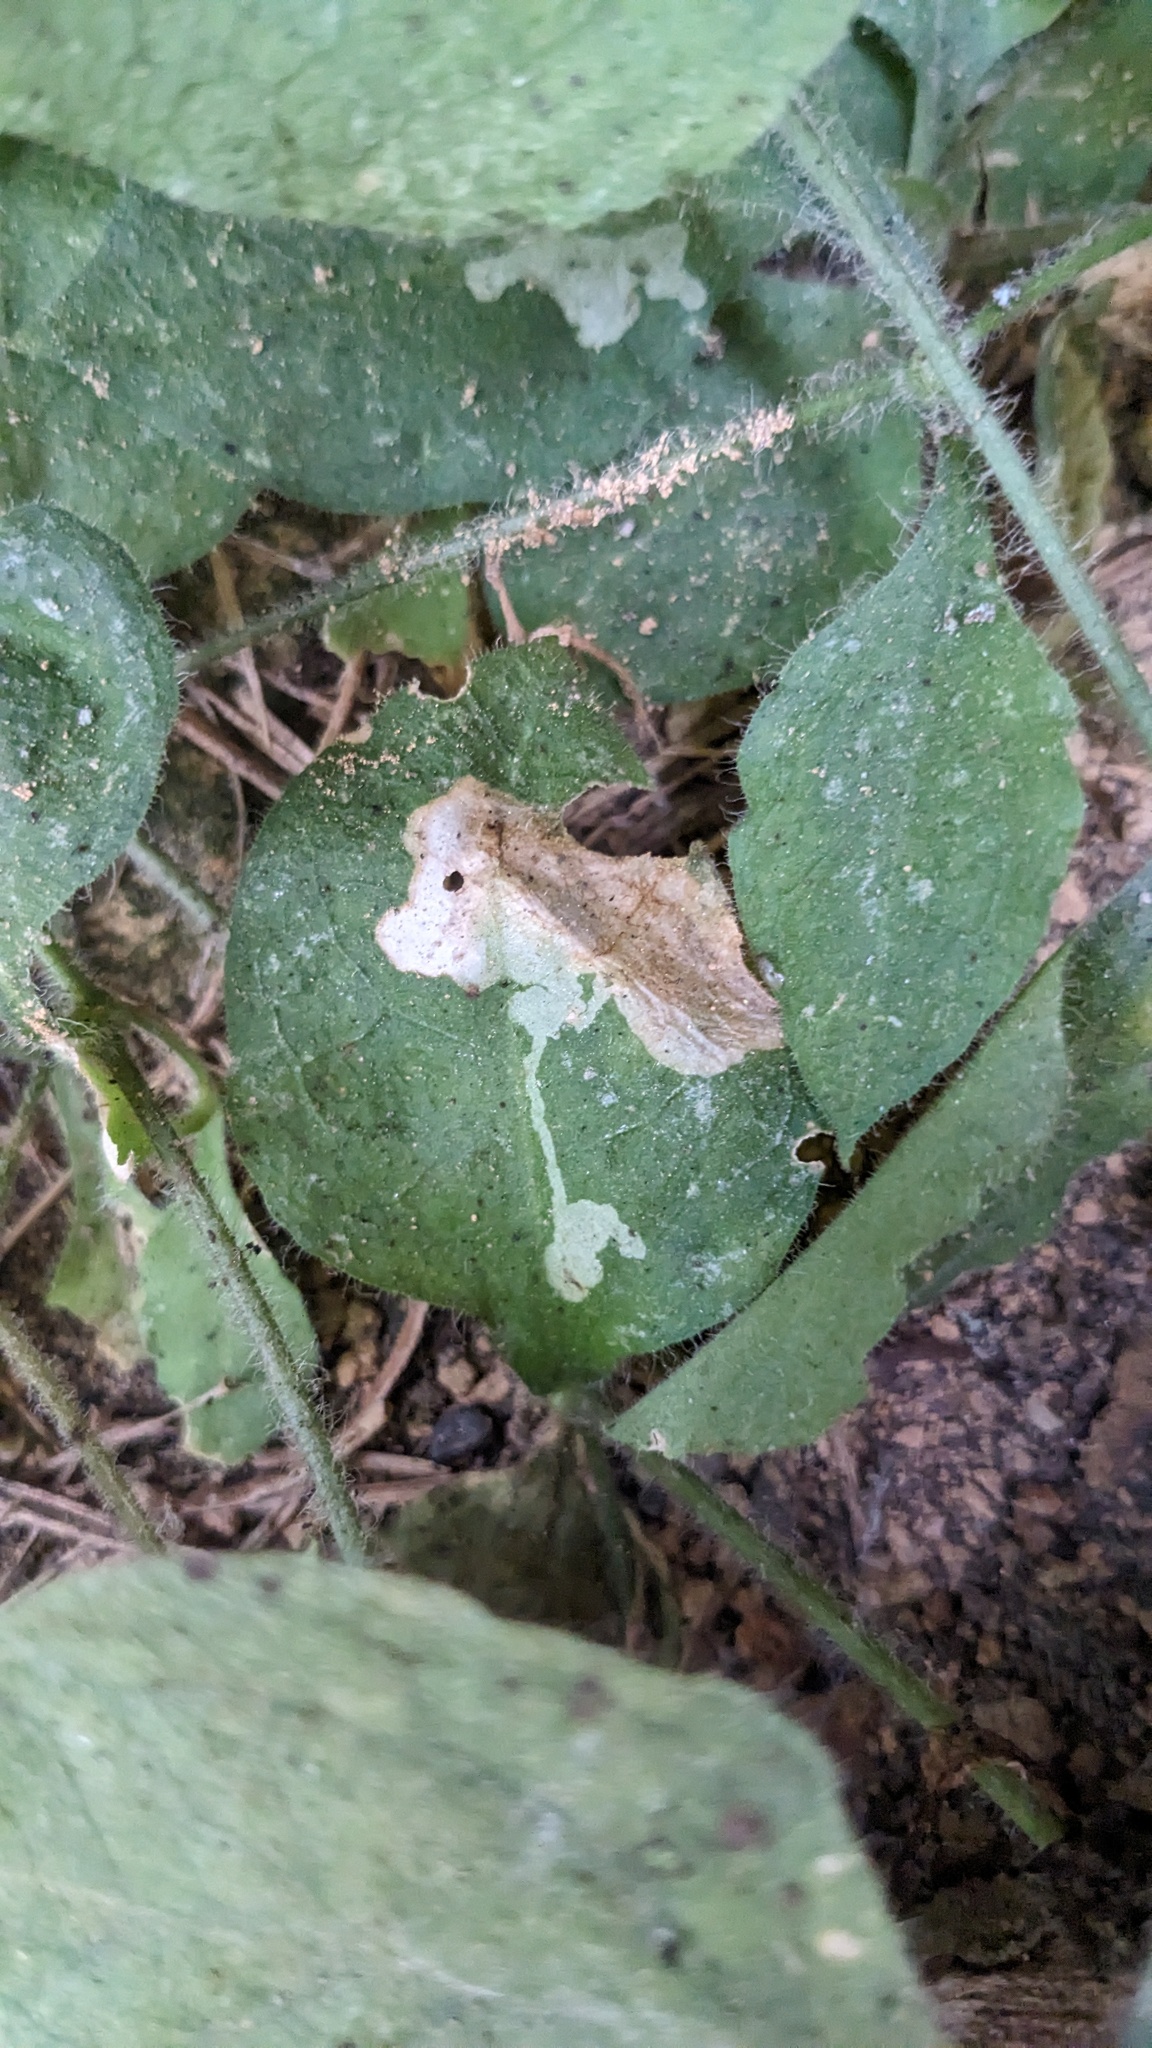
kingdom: Animalia
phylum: Arthropoda
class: Insecta
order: Diptera
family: Agromyzidae
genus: Amauromyza
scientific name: Amauromyza flavifrons
